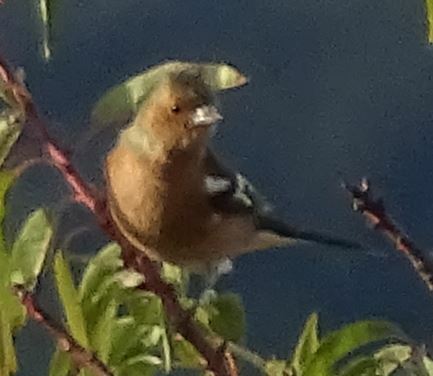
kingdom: Animalia
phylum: Chordata
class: Aves
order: Passeriformes
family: Fringillidae
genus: Fringilla
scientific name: Fringilla coelebs
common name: Common chaffinch
